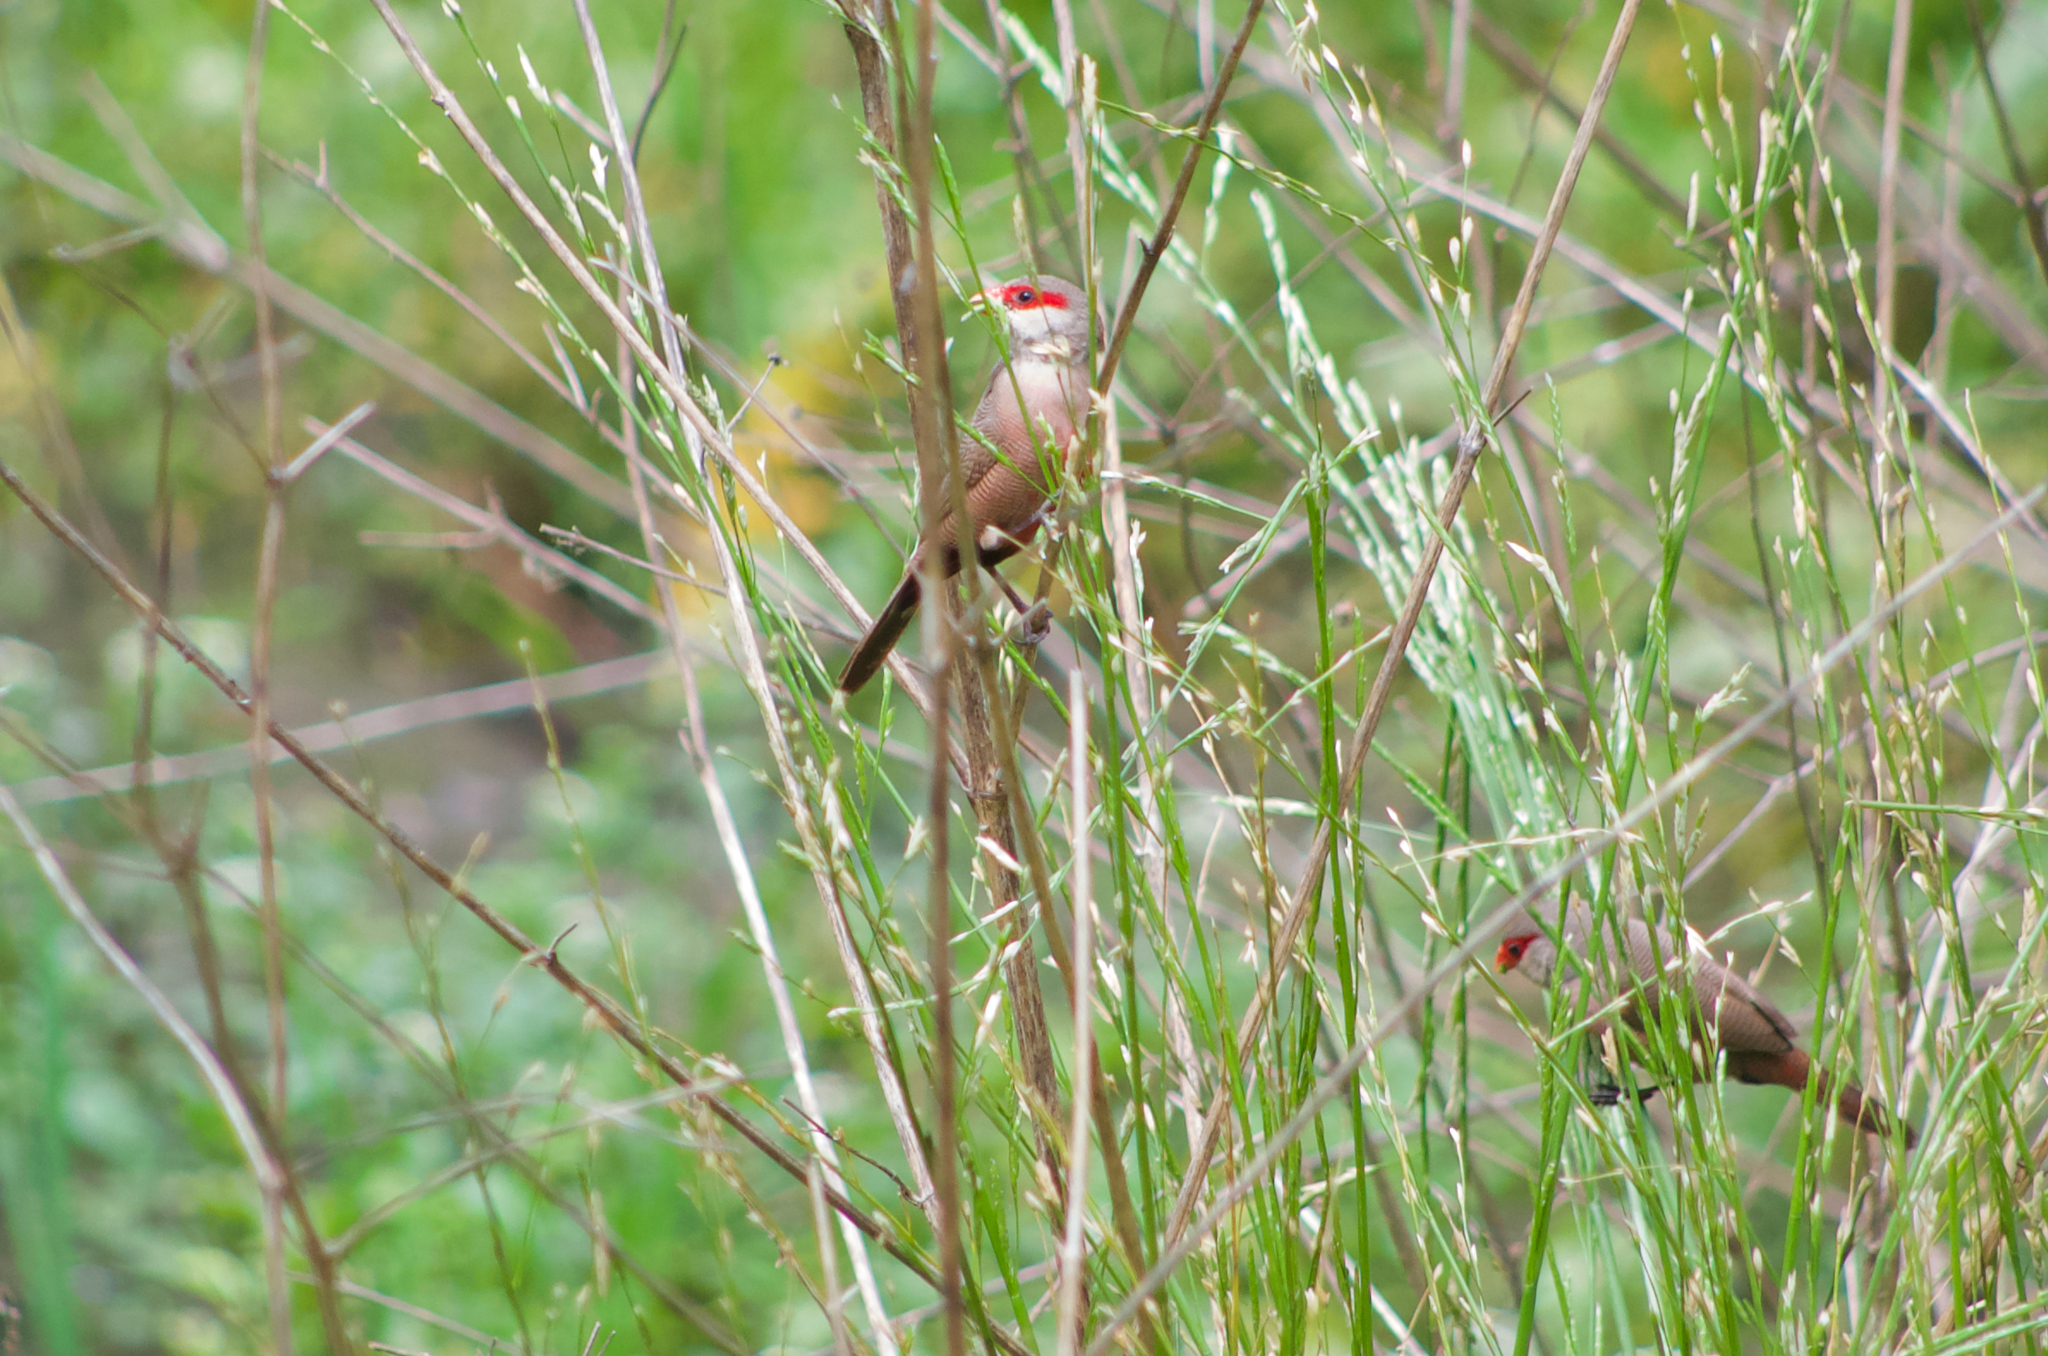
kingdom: Animalia
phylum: Chordata
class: Aves
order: Passeriformes
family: Estrildidae
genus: Estrilda
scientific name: Estrilda astrild
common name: Common waxbill
